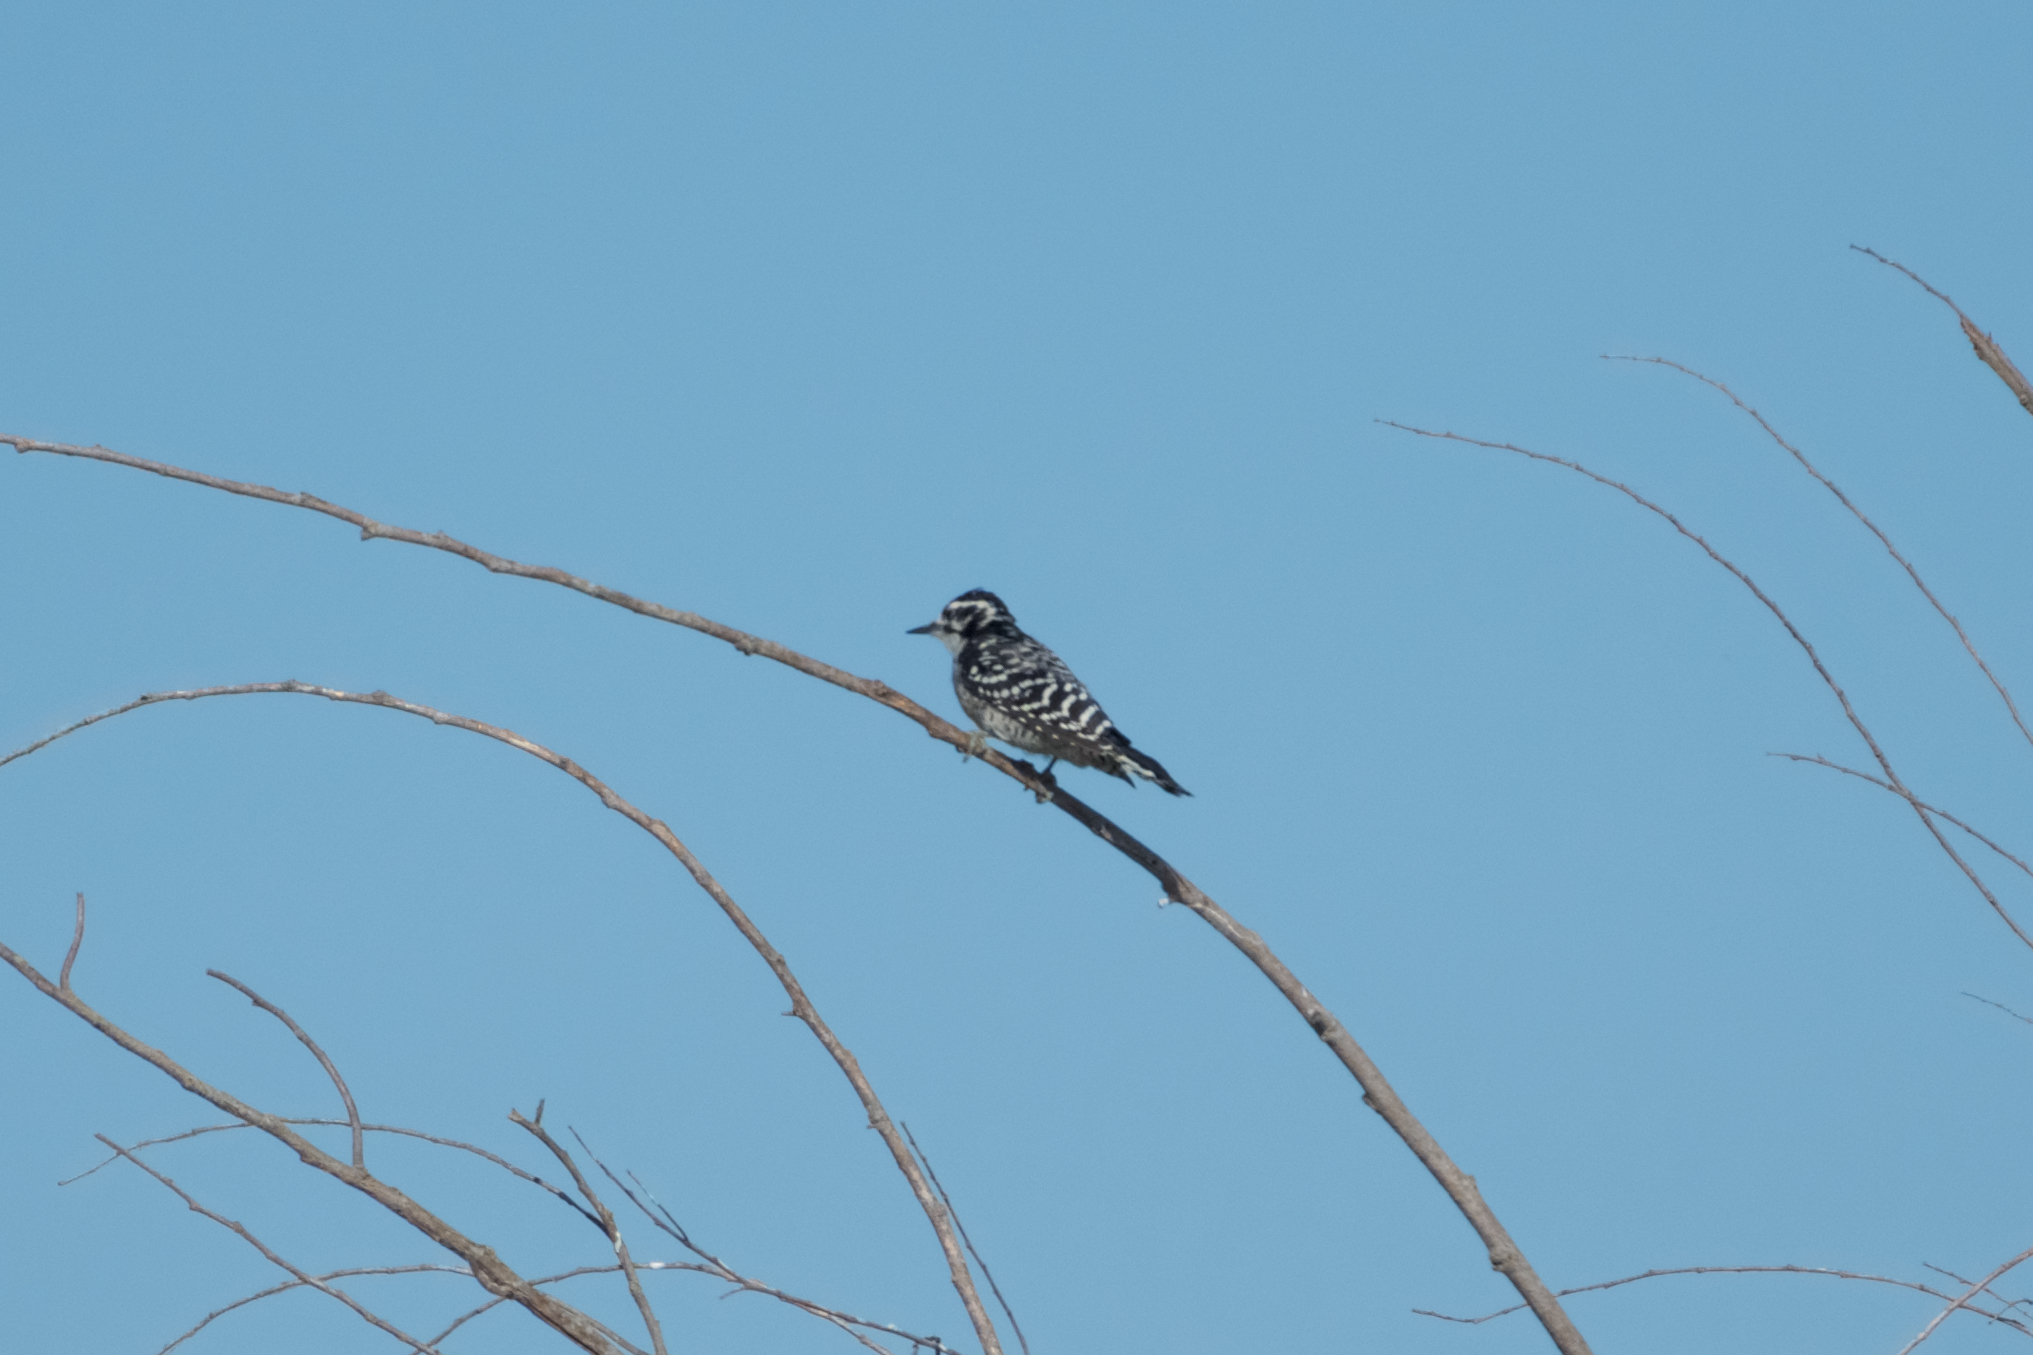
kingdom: Animalia
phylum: Chordata
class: Aves
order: Piciformes
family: Picidae
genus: Dryobates
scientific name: Dryobates nuttallii
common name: Nuttall's woodpecker
